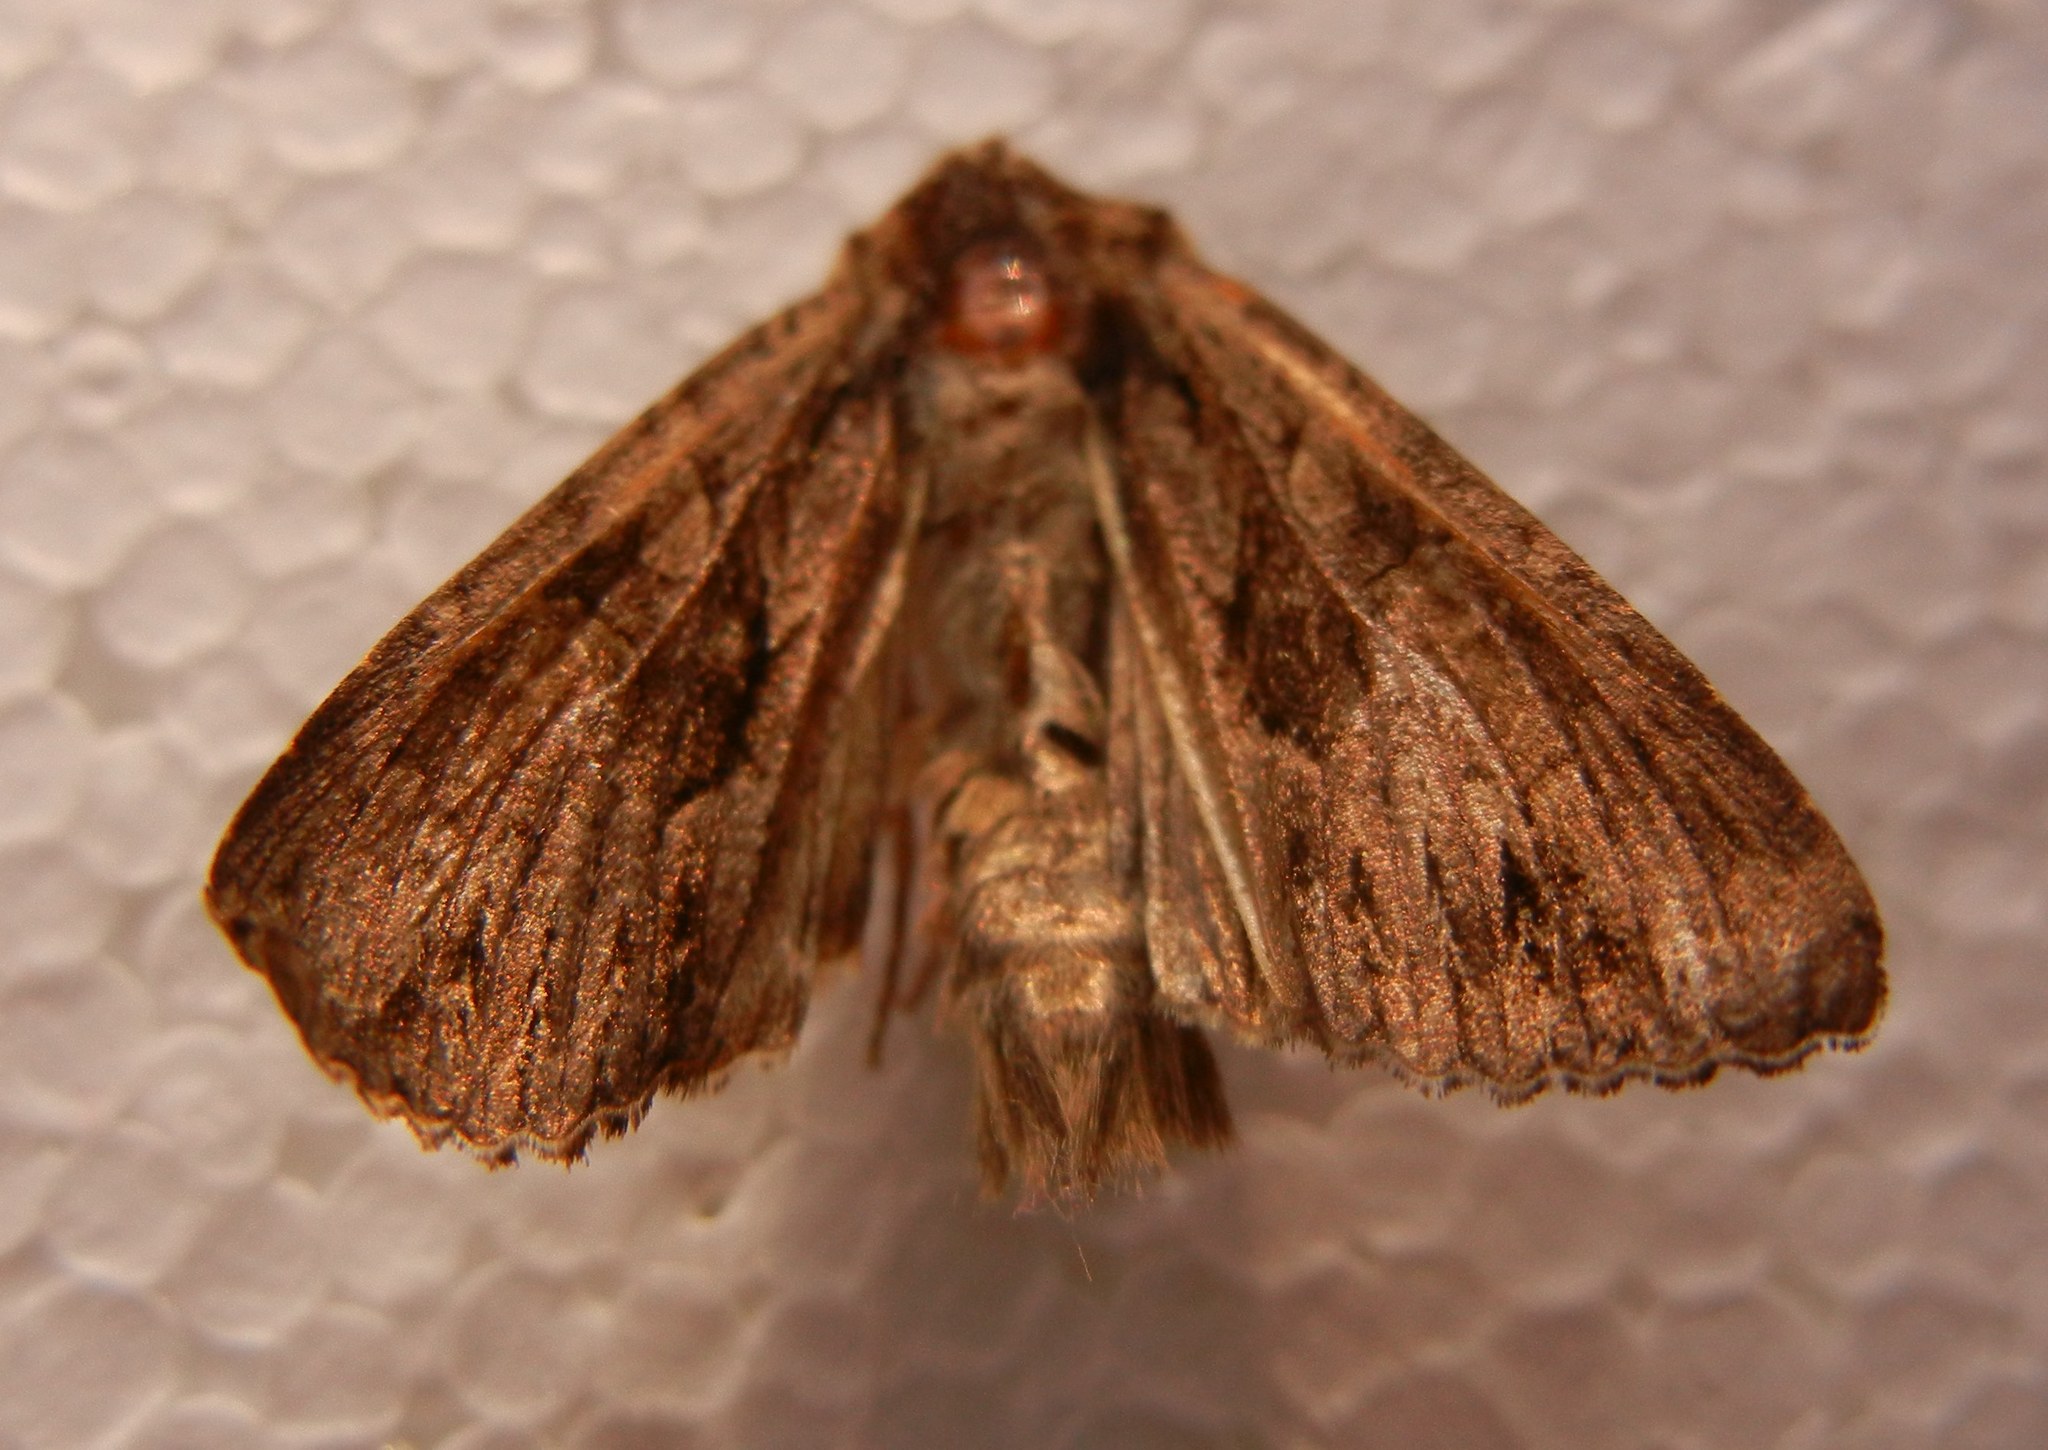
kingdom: Animalia
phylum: Arthropoda
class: Insecta
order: Lepidoptera
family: Noctuidae
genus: Apamea
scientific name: Apamea monoglypha
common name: Dark arches
